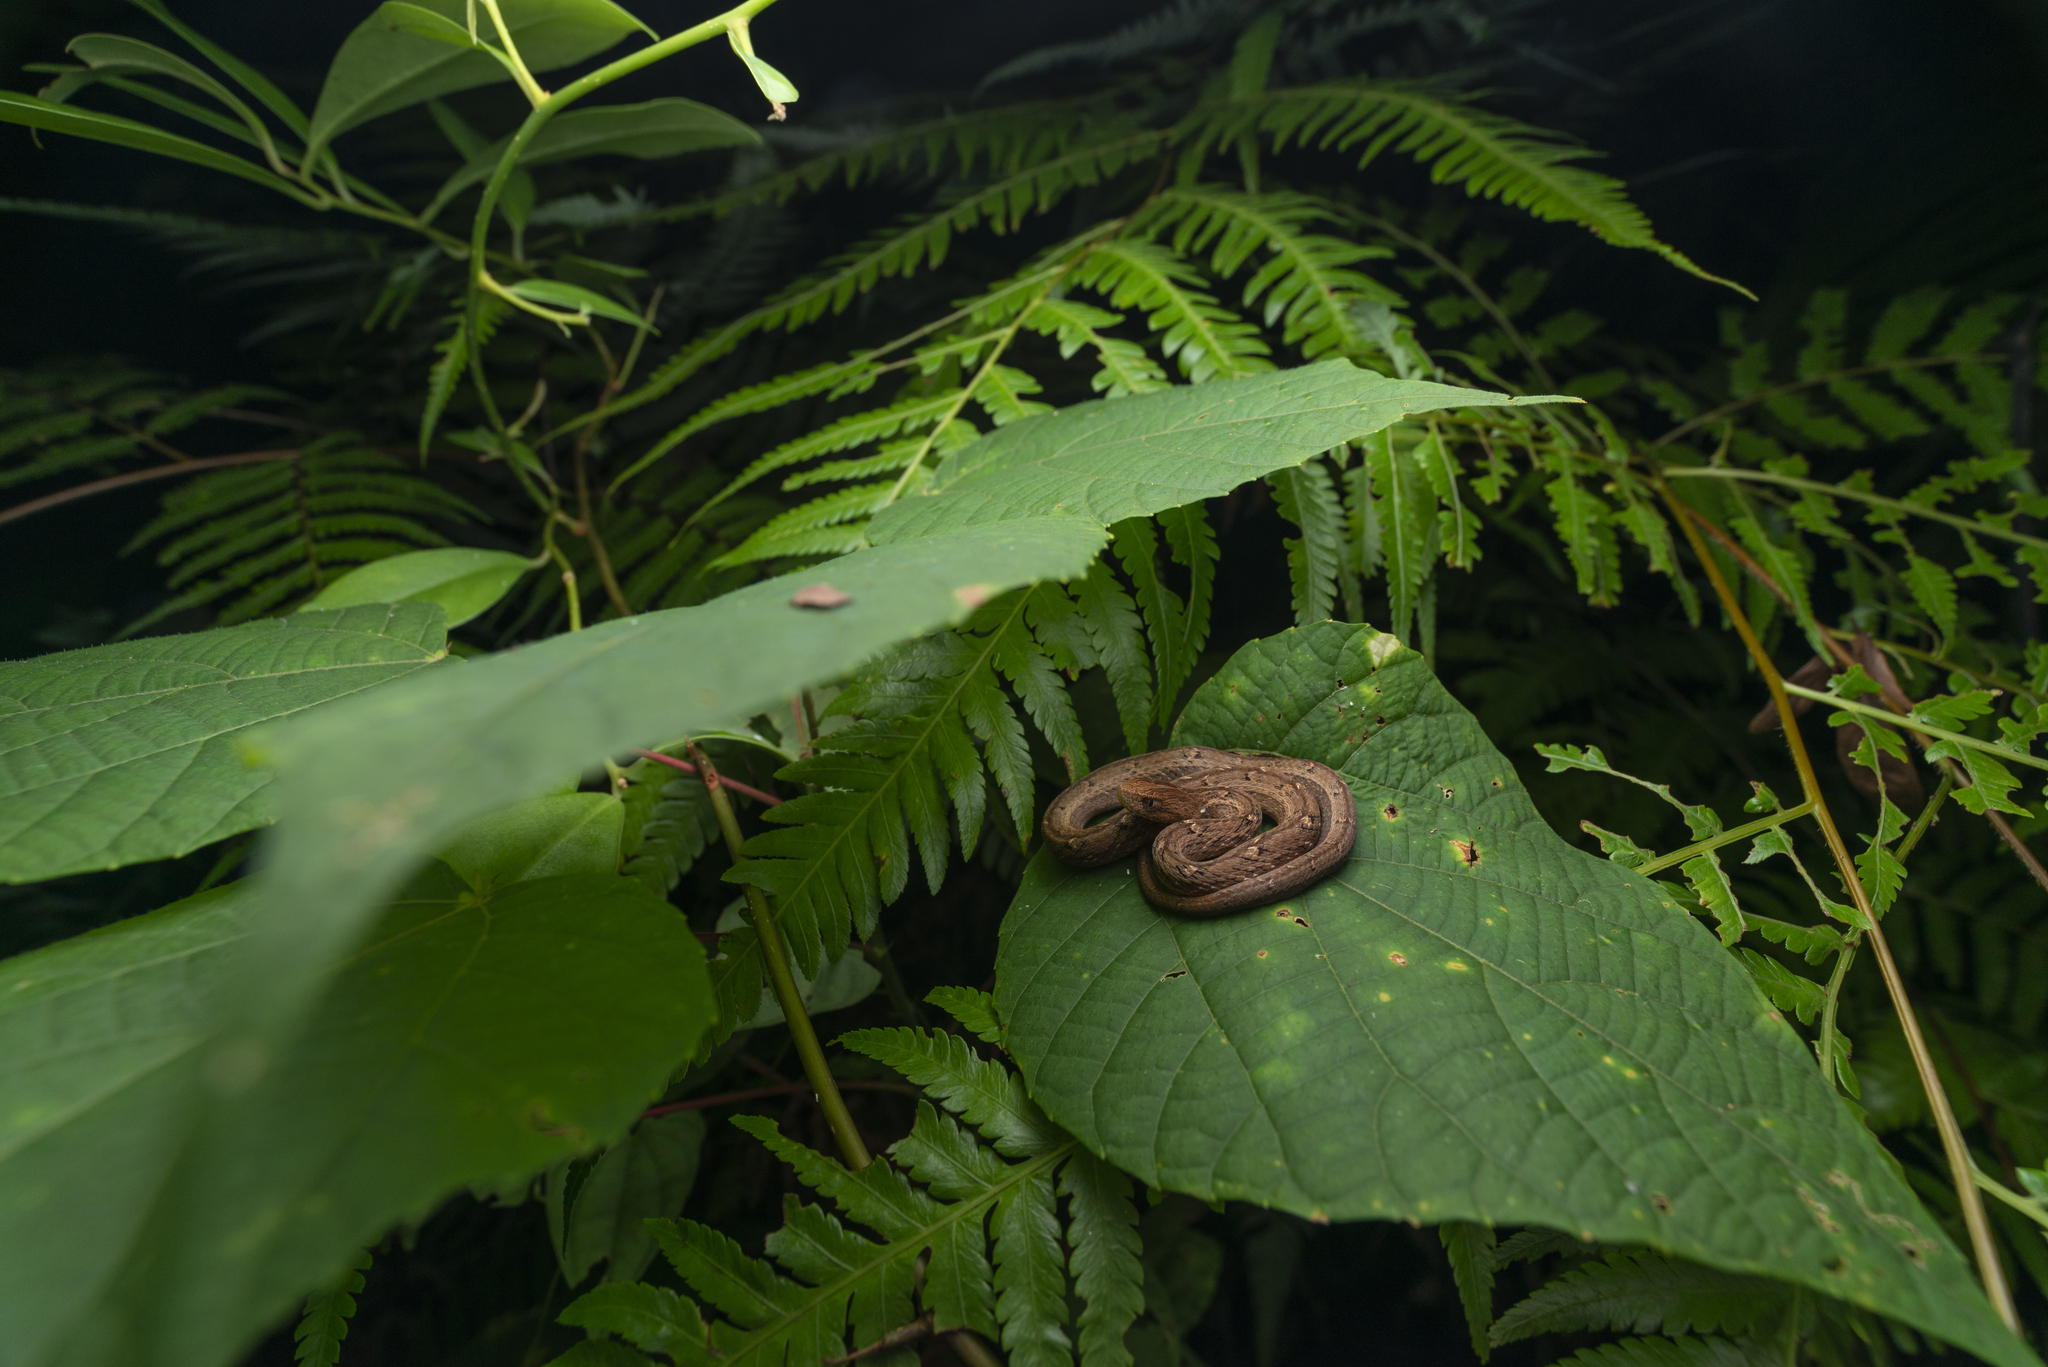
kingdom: Animalia
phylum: Chordata
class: Squamata
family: Pseudaspididae
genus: Psammodynastes
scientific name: Psammodynastes pulverulentus
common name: Common mock viper
